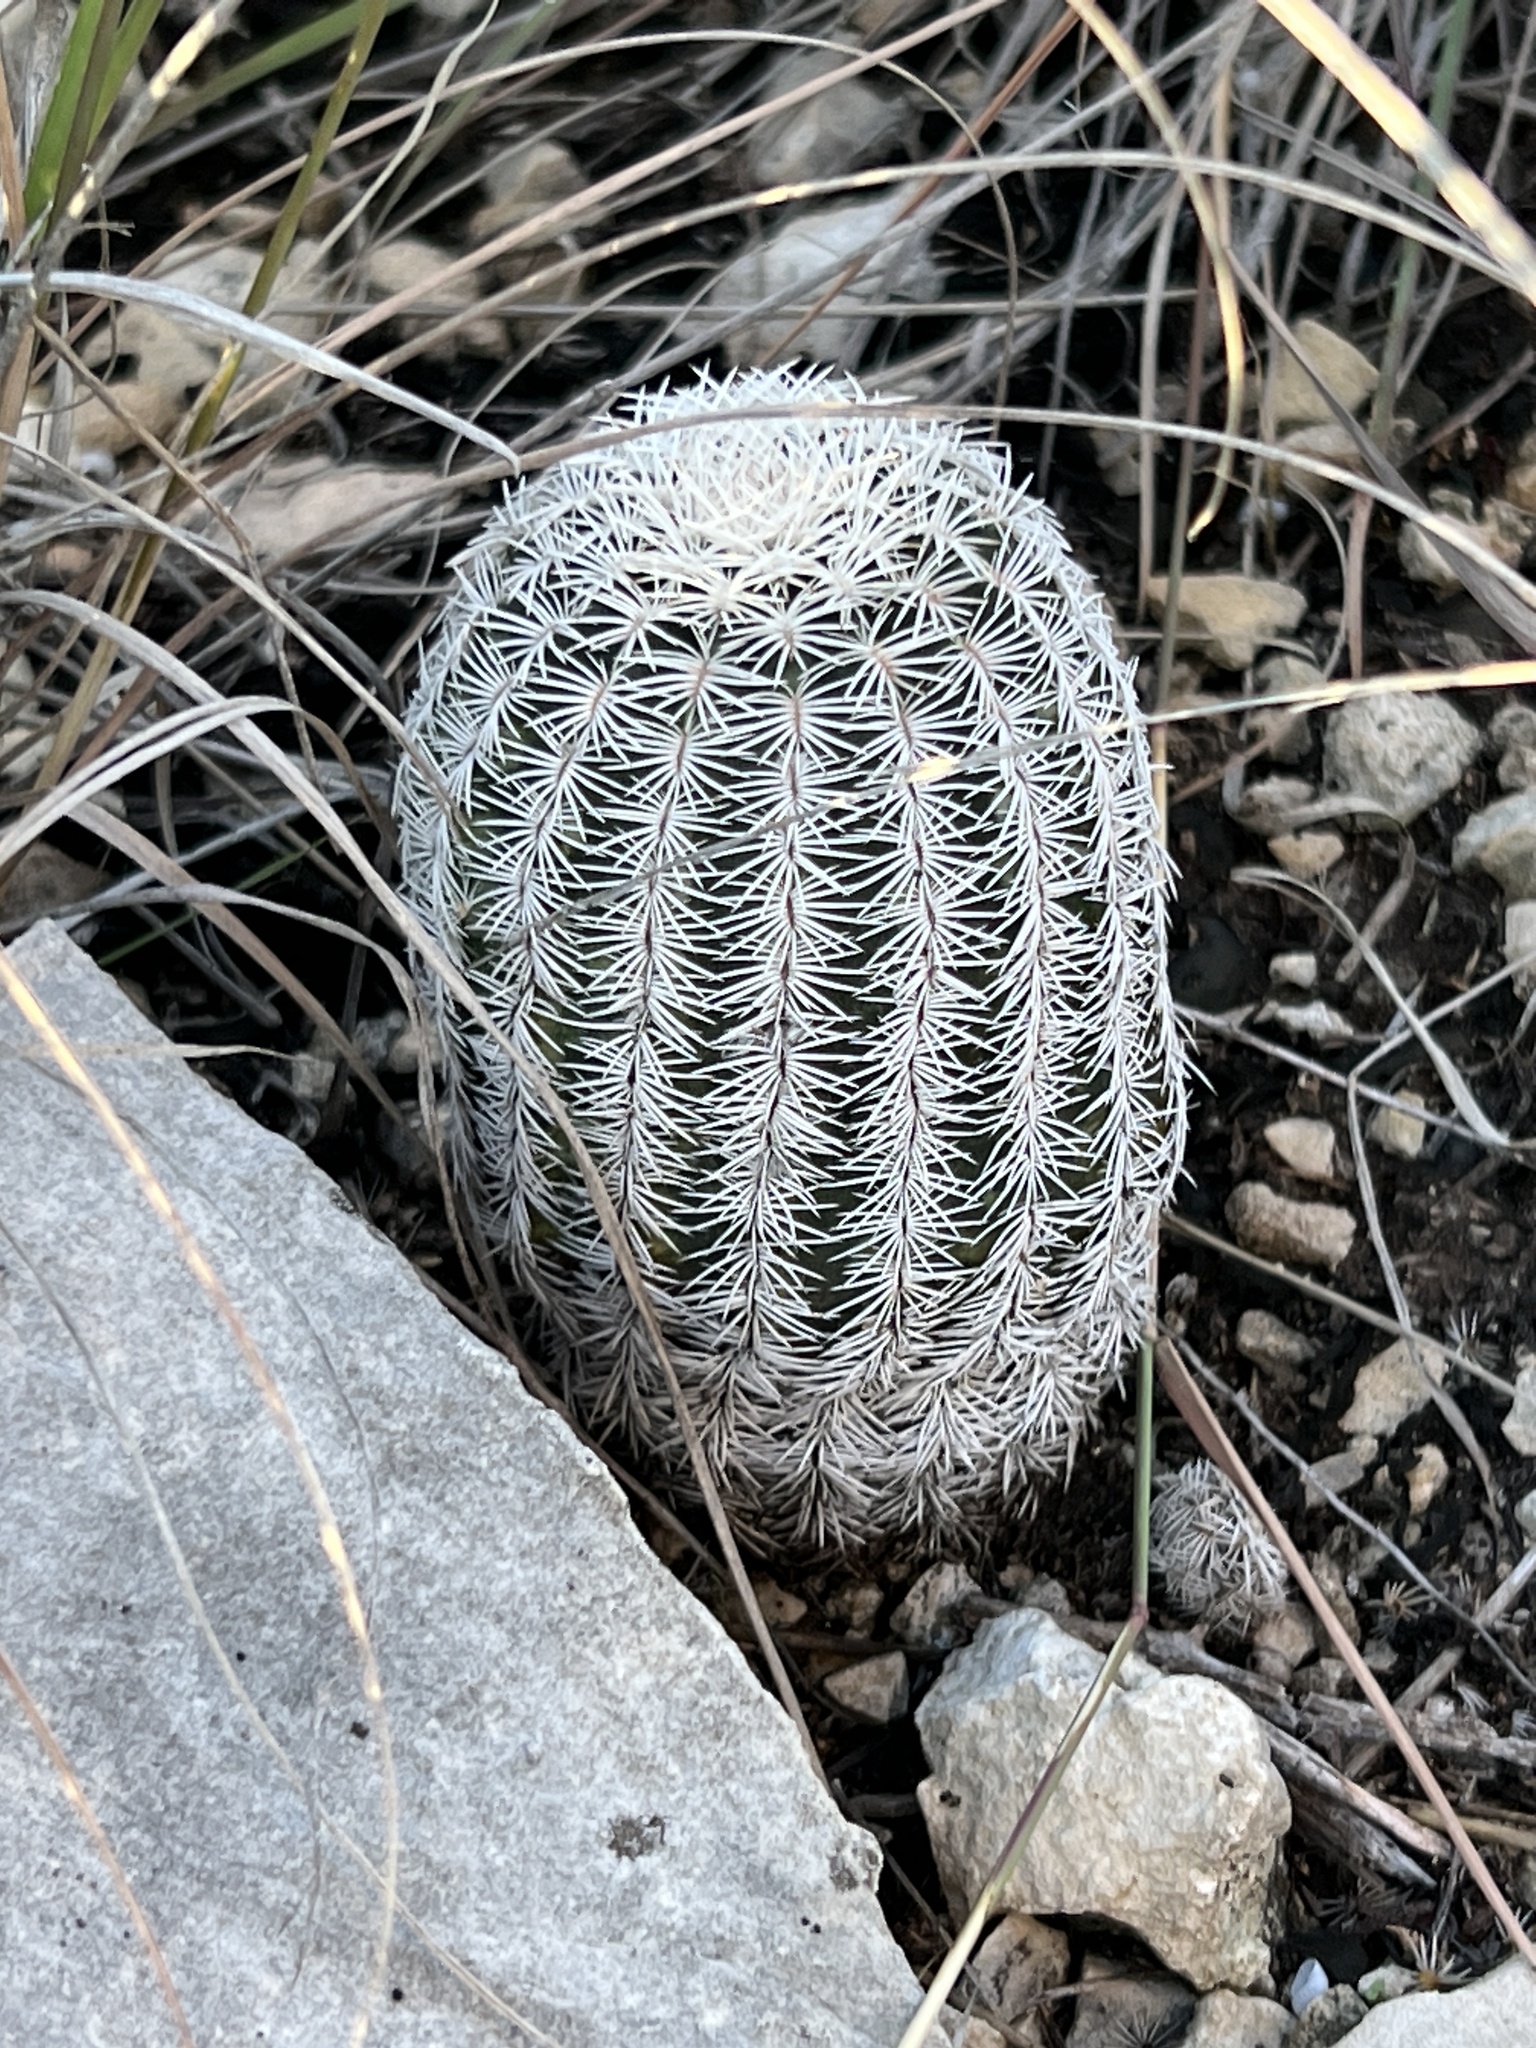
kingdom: Plantae
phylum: Tracheophyta
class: Magnoliopsida
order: Caryophyllales
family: Cactaceae
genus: Echinocereus
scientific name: Echinocereus reichenbachii
